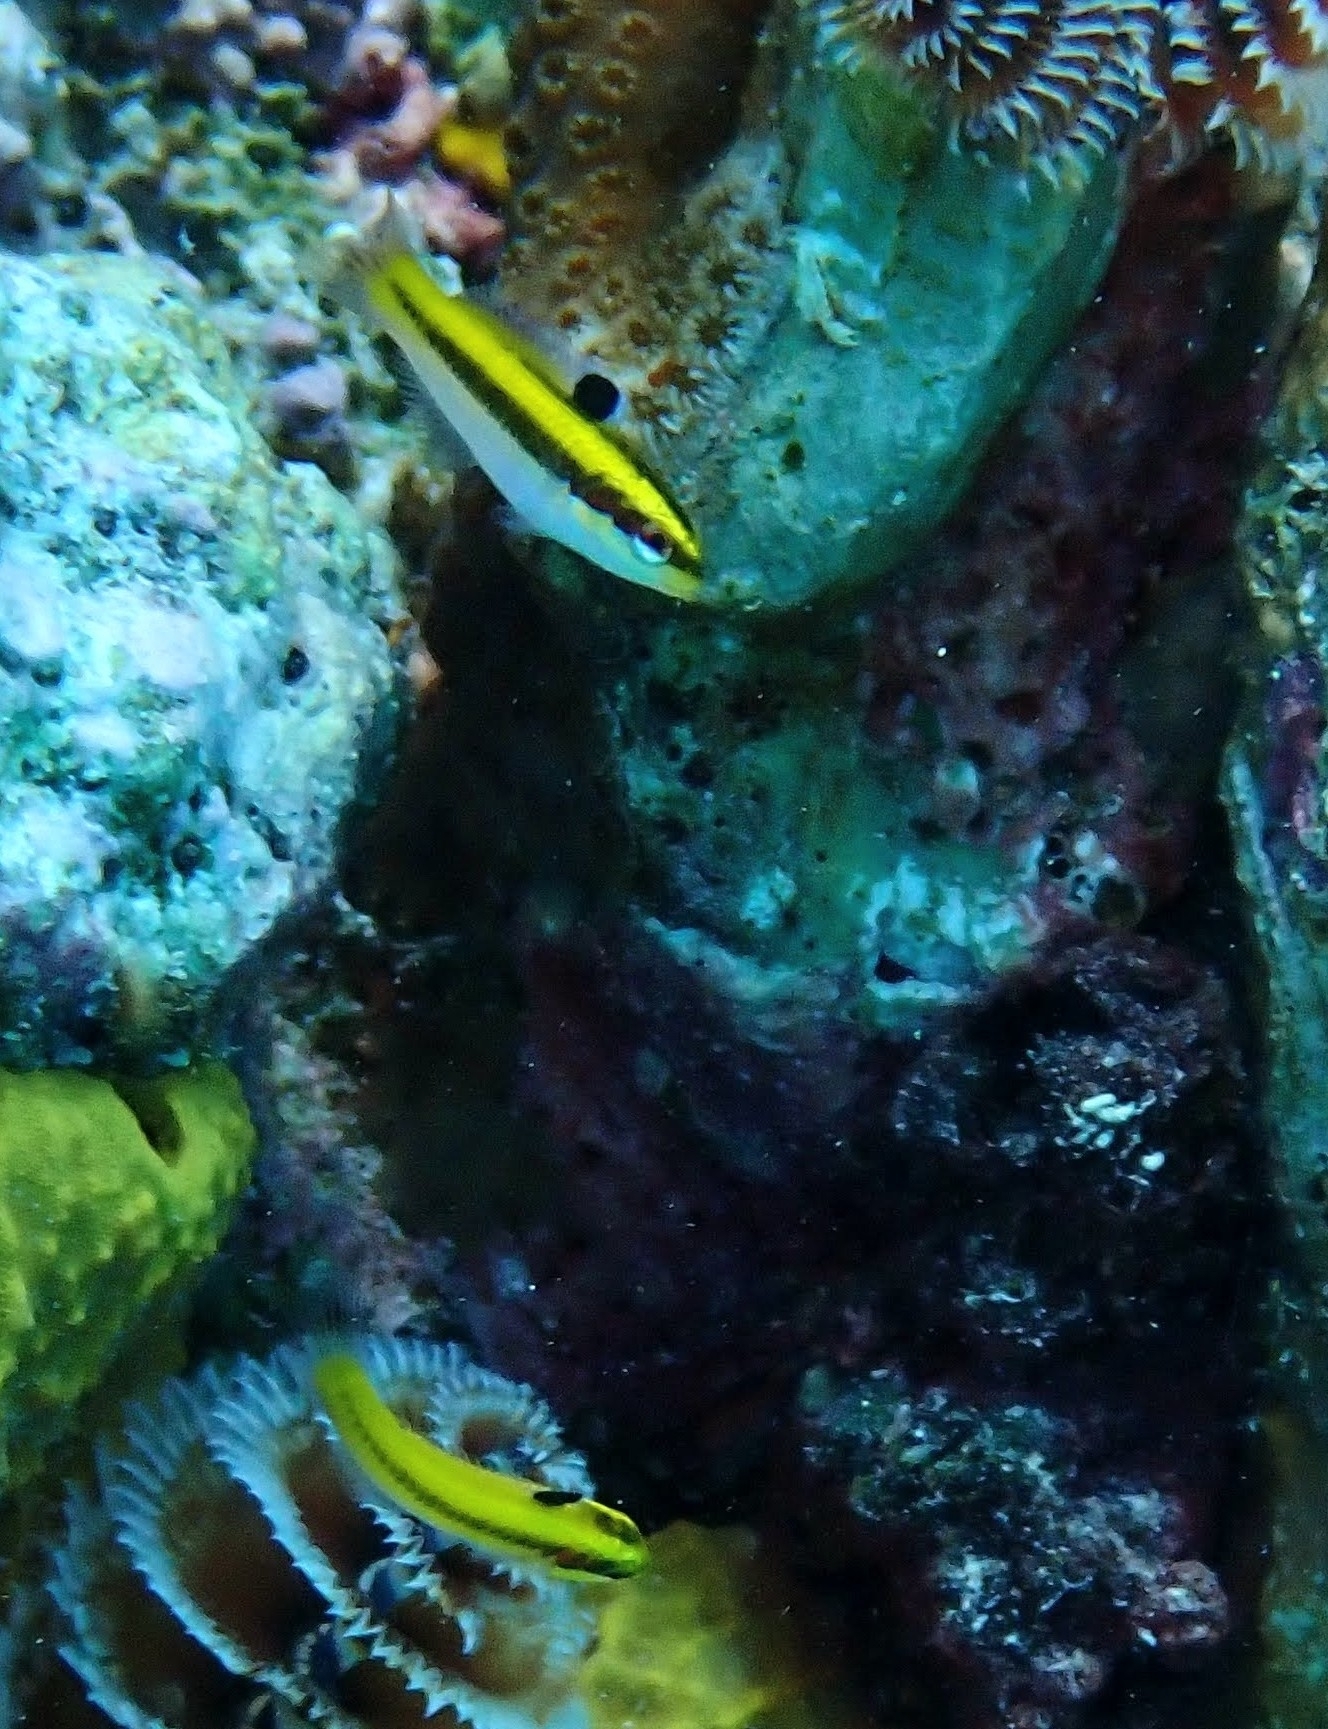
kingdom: Animalia
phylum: Chordata
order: Perciformes
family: Labridae
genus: Thalassoma
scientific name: Thalassoma bifasciatum
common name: Bluehead wrasse
